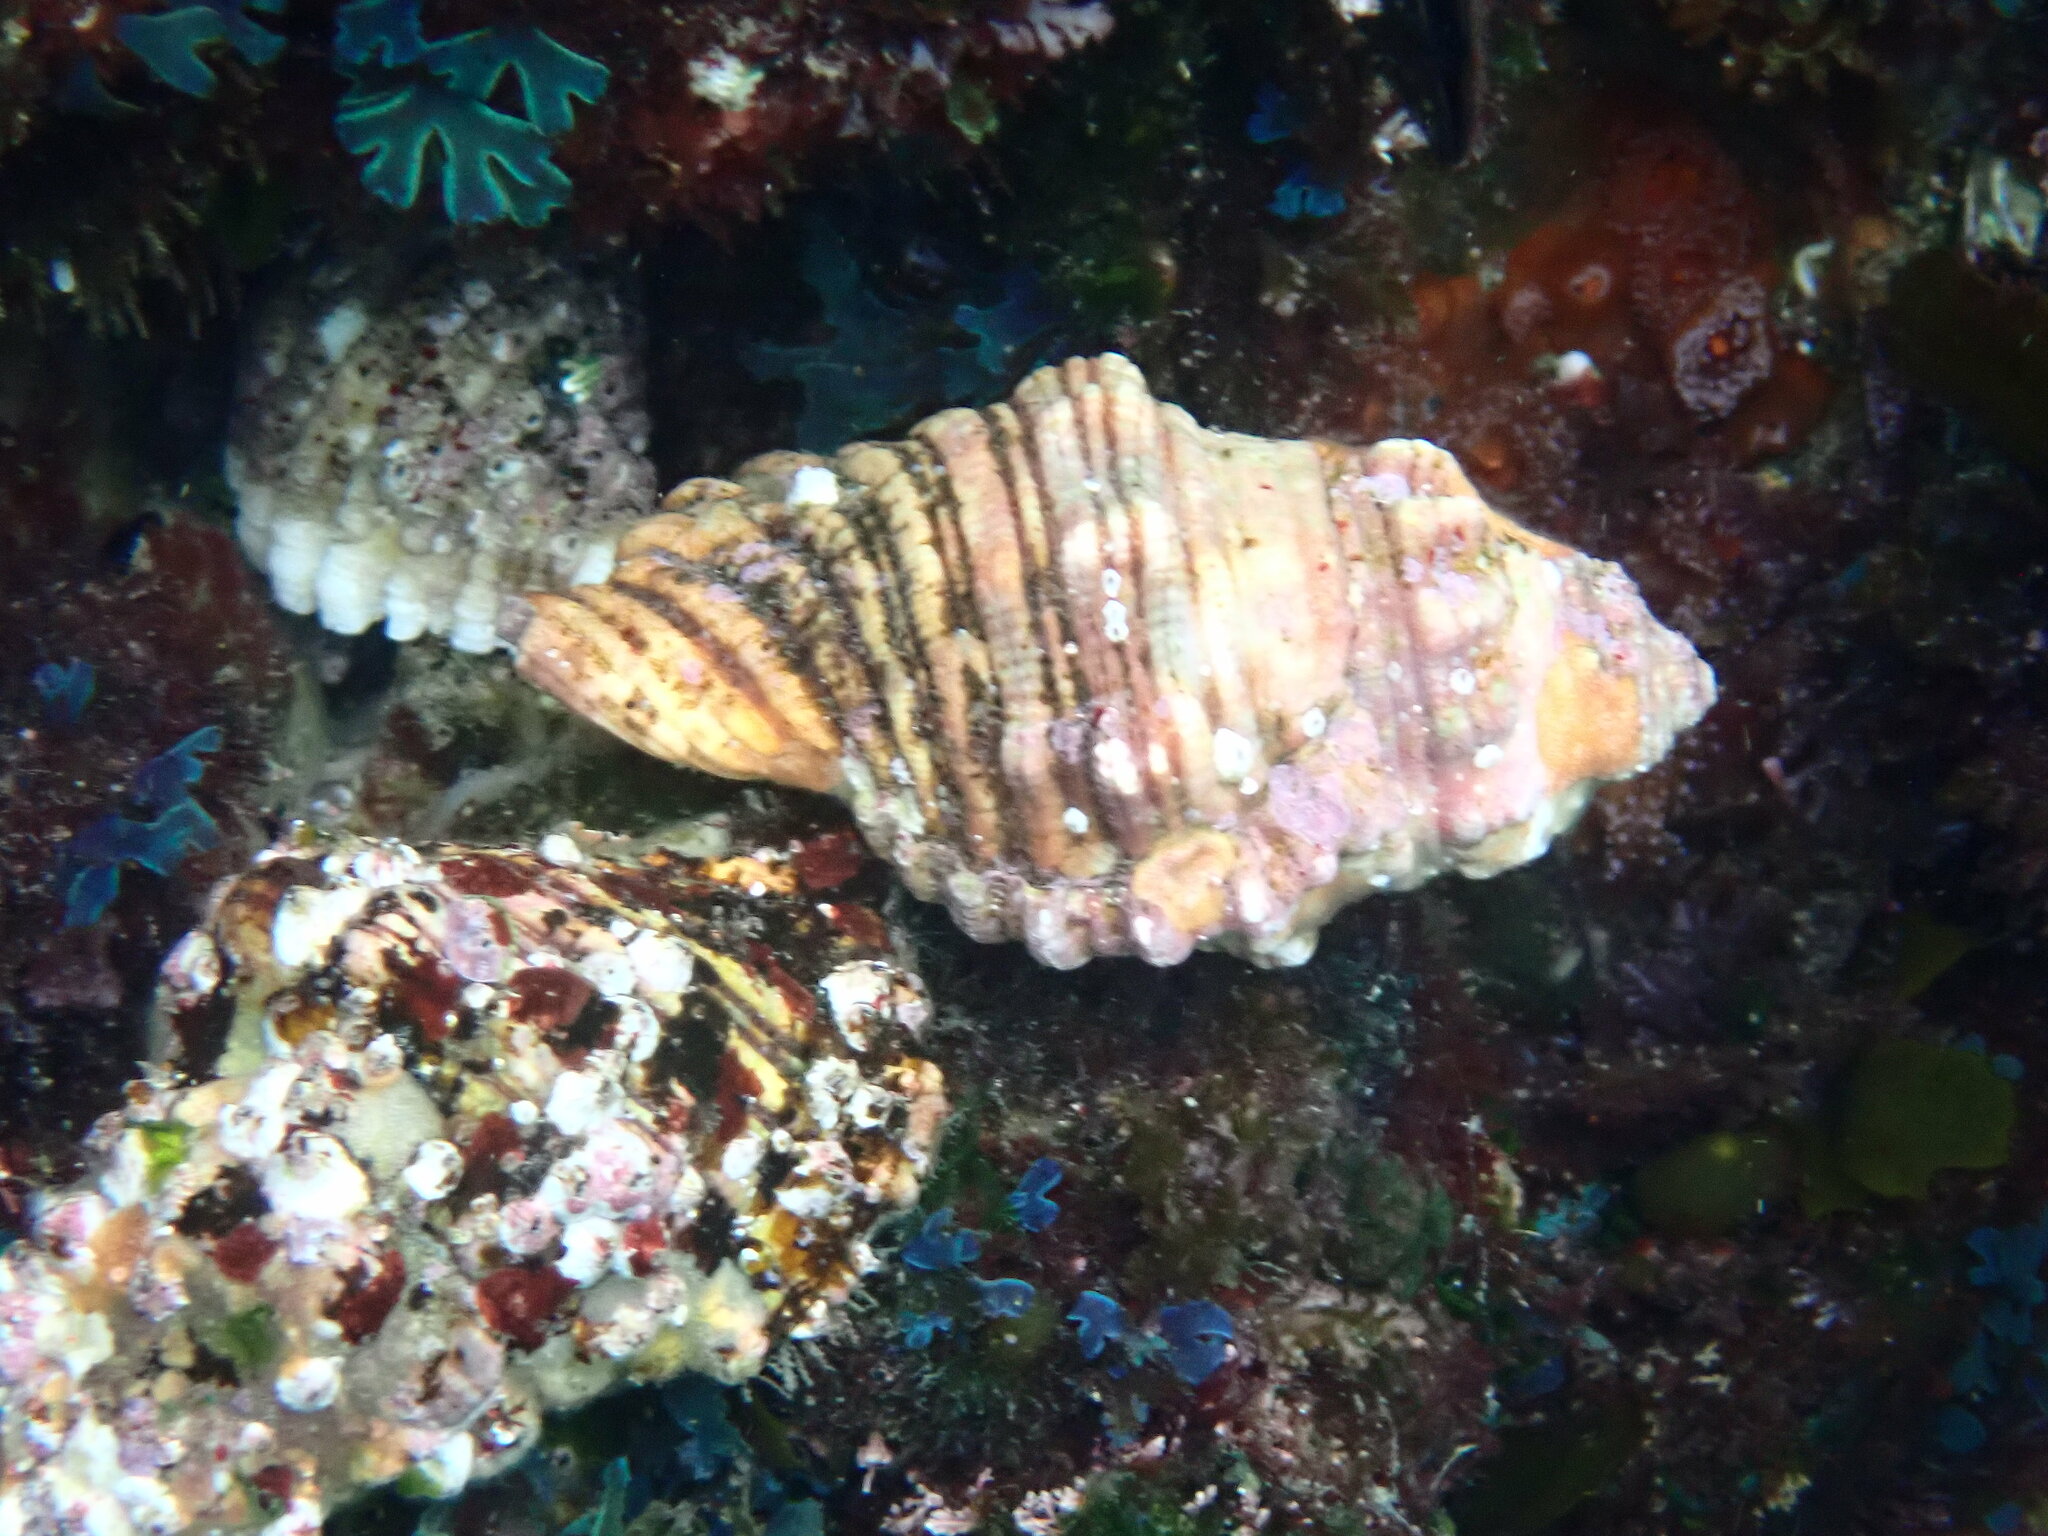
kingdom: Animalia
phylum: Mollusca
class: Gastropoda
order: Littorinimorpha
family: Cymatiidae
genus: Cabestana
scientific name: Cabestana spengleri
